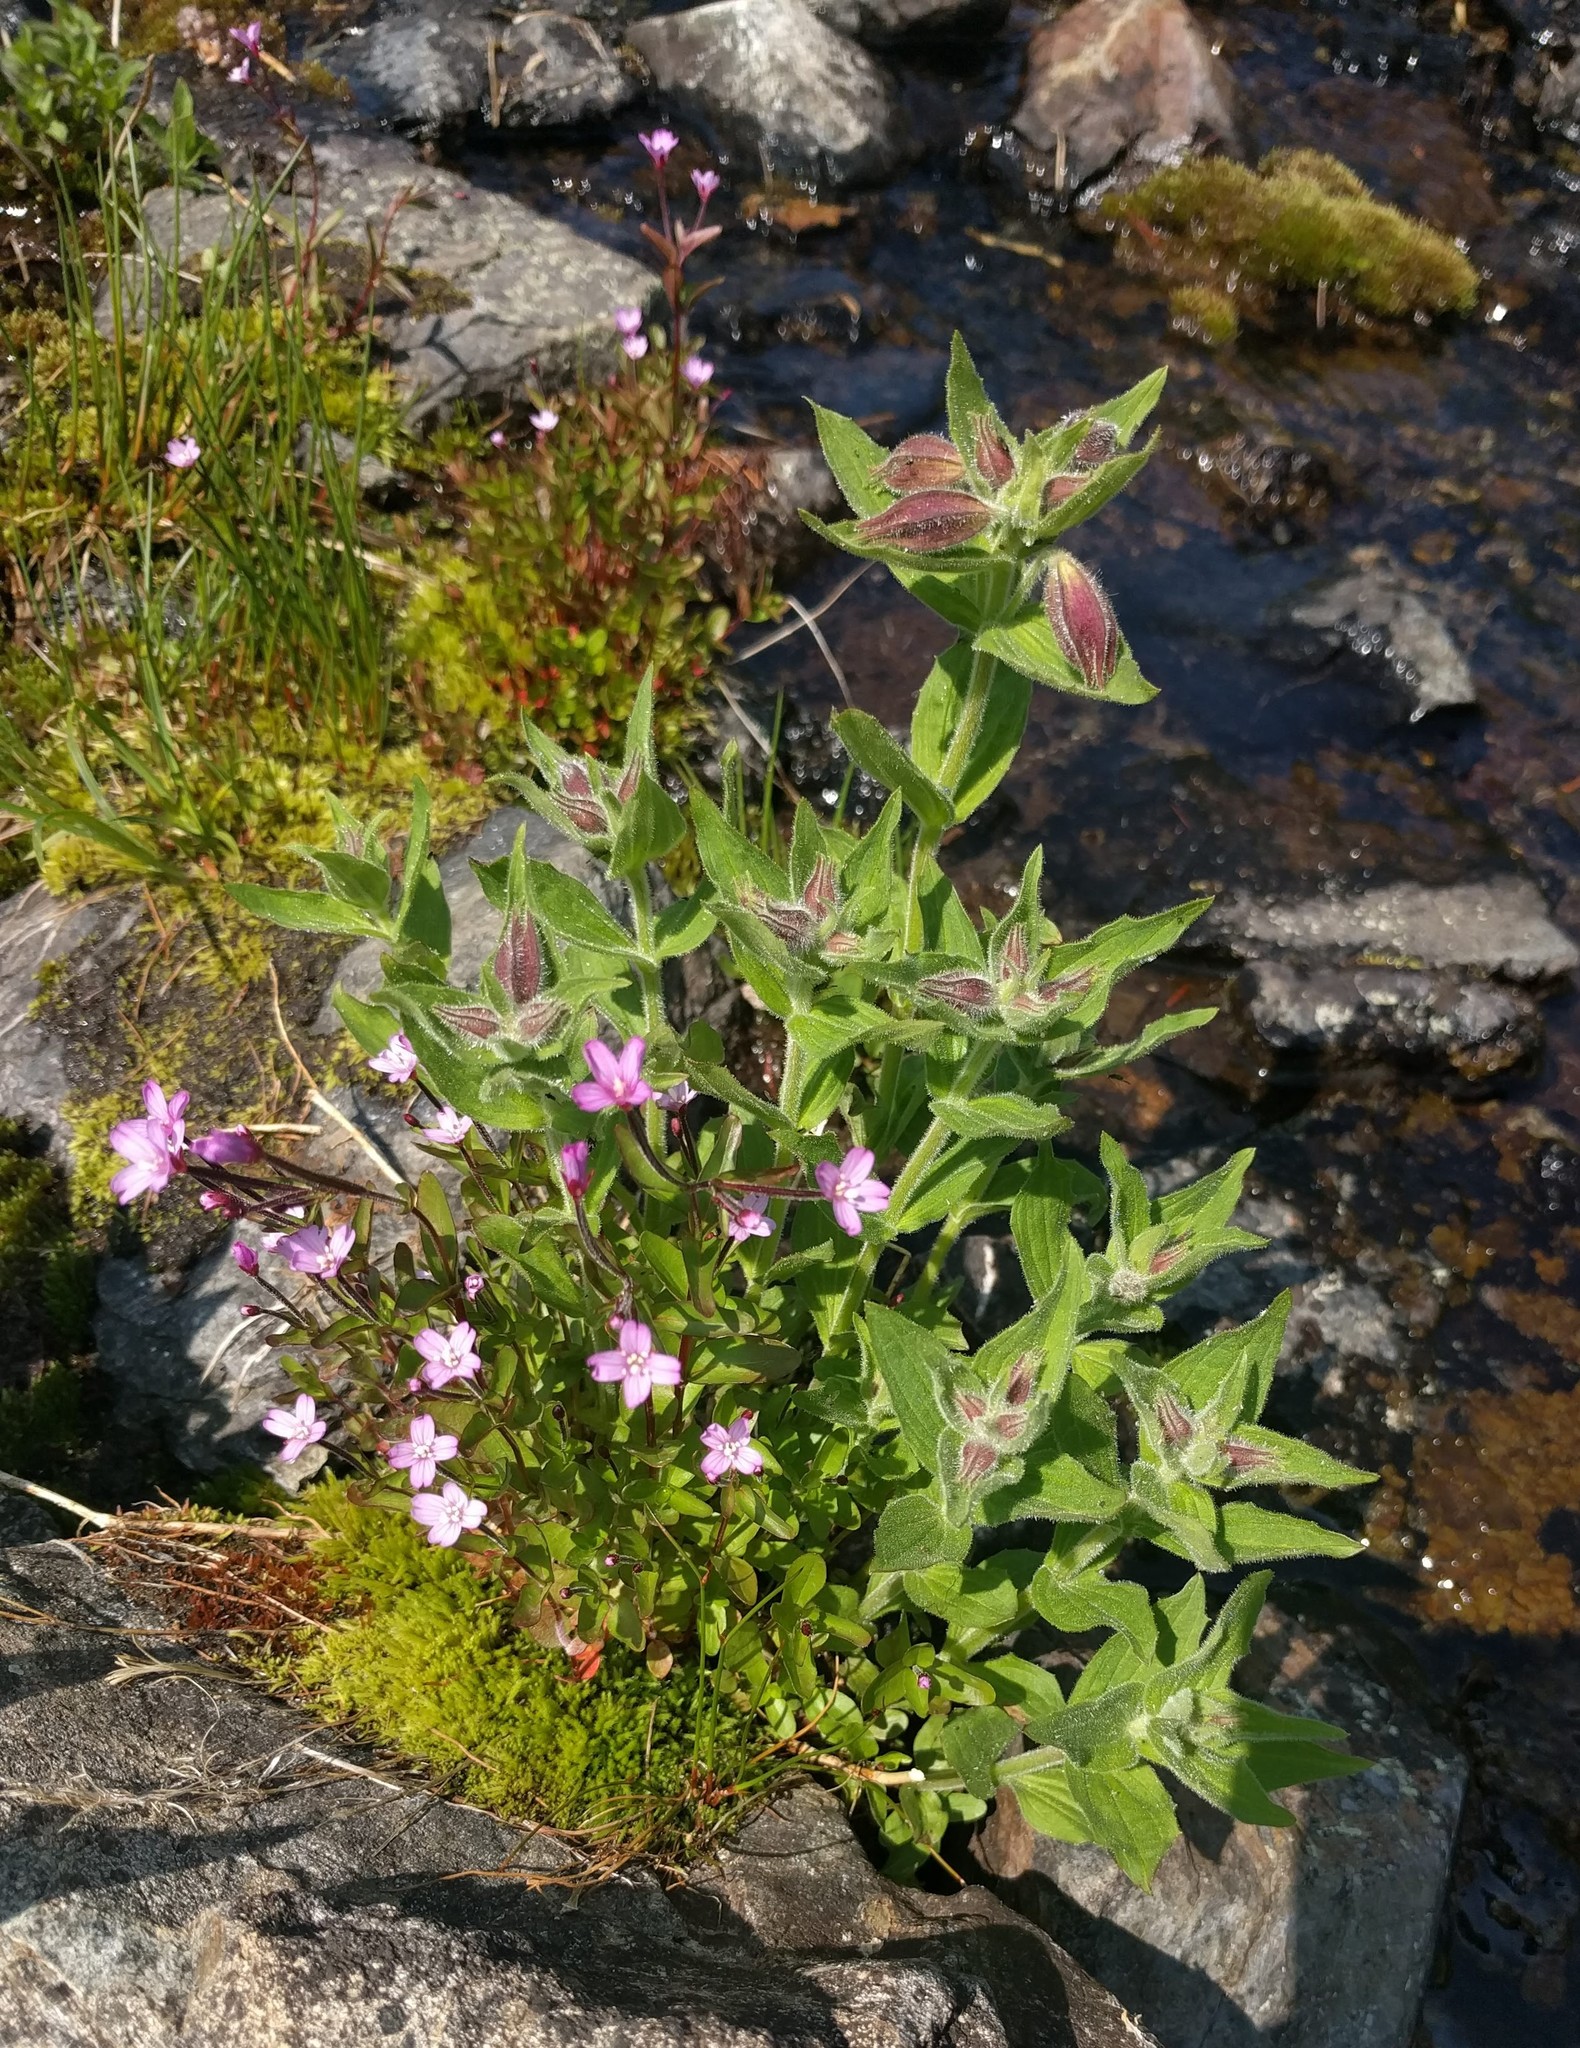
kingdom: Plantae
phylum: Tracheophyta
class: Magnoliopsida
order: Myrtales
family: Onagraceae
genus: Epilobium
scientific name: Epilobium minutum
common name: Chaparral willowherb
